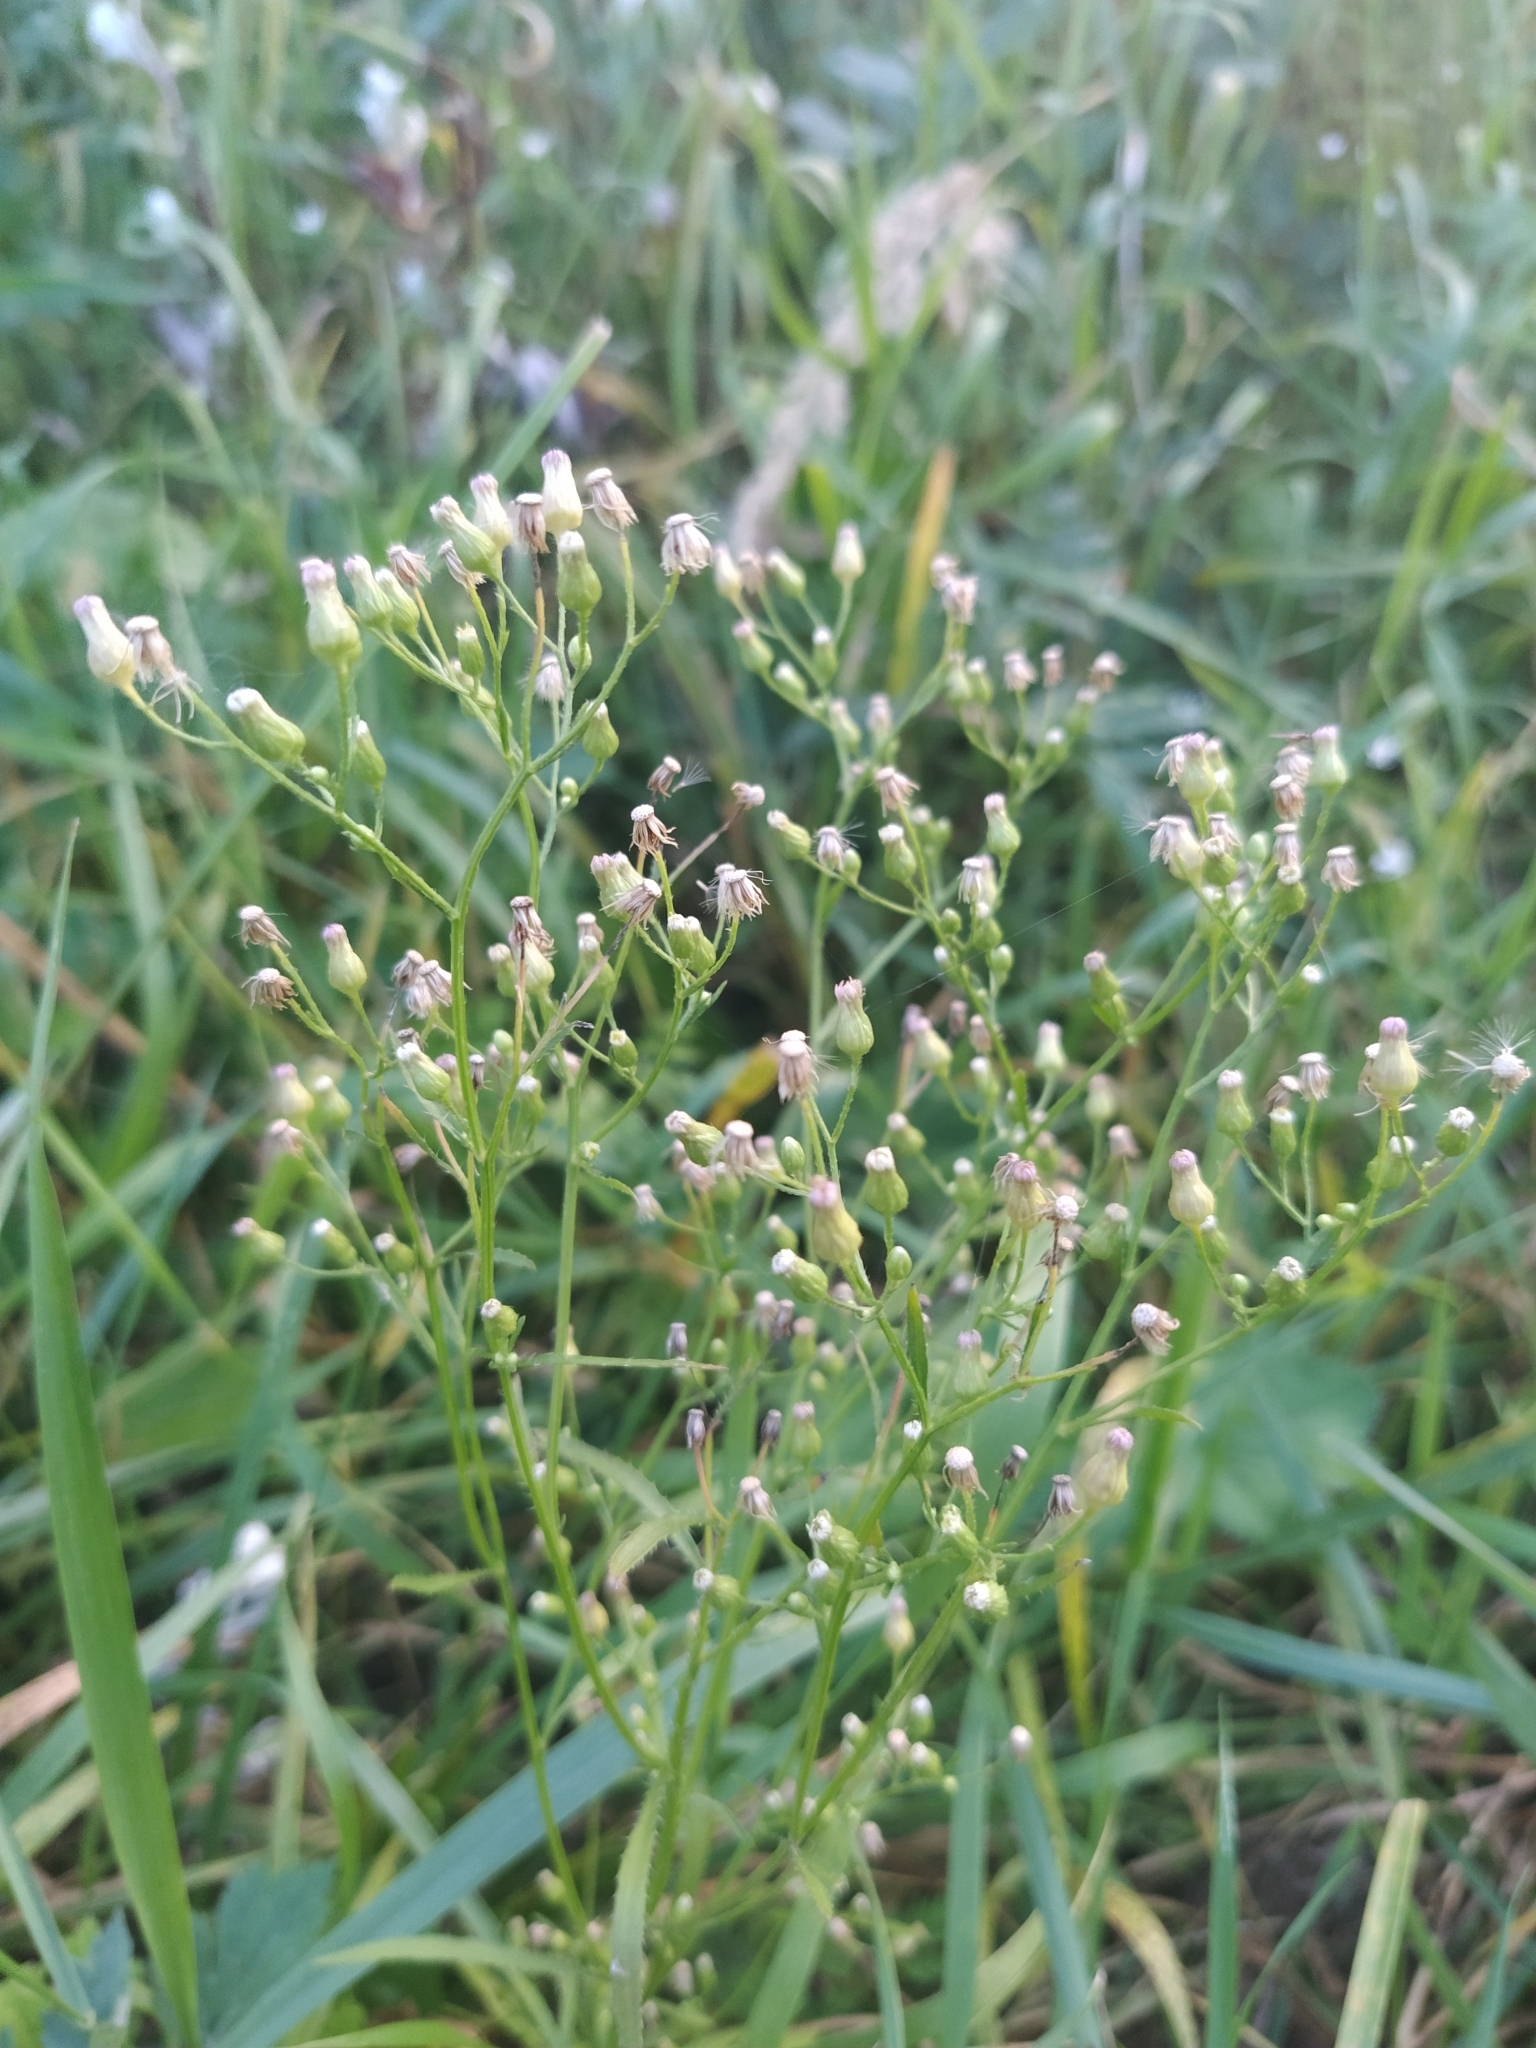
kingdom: Plantae
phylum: Tracheophyta
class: Magnoliopsida
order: Asterales
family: Asteraceae
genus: Erigeron
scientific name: Erigeron canadensis
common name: Canadian fleabane
